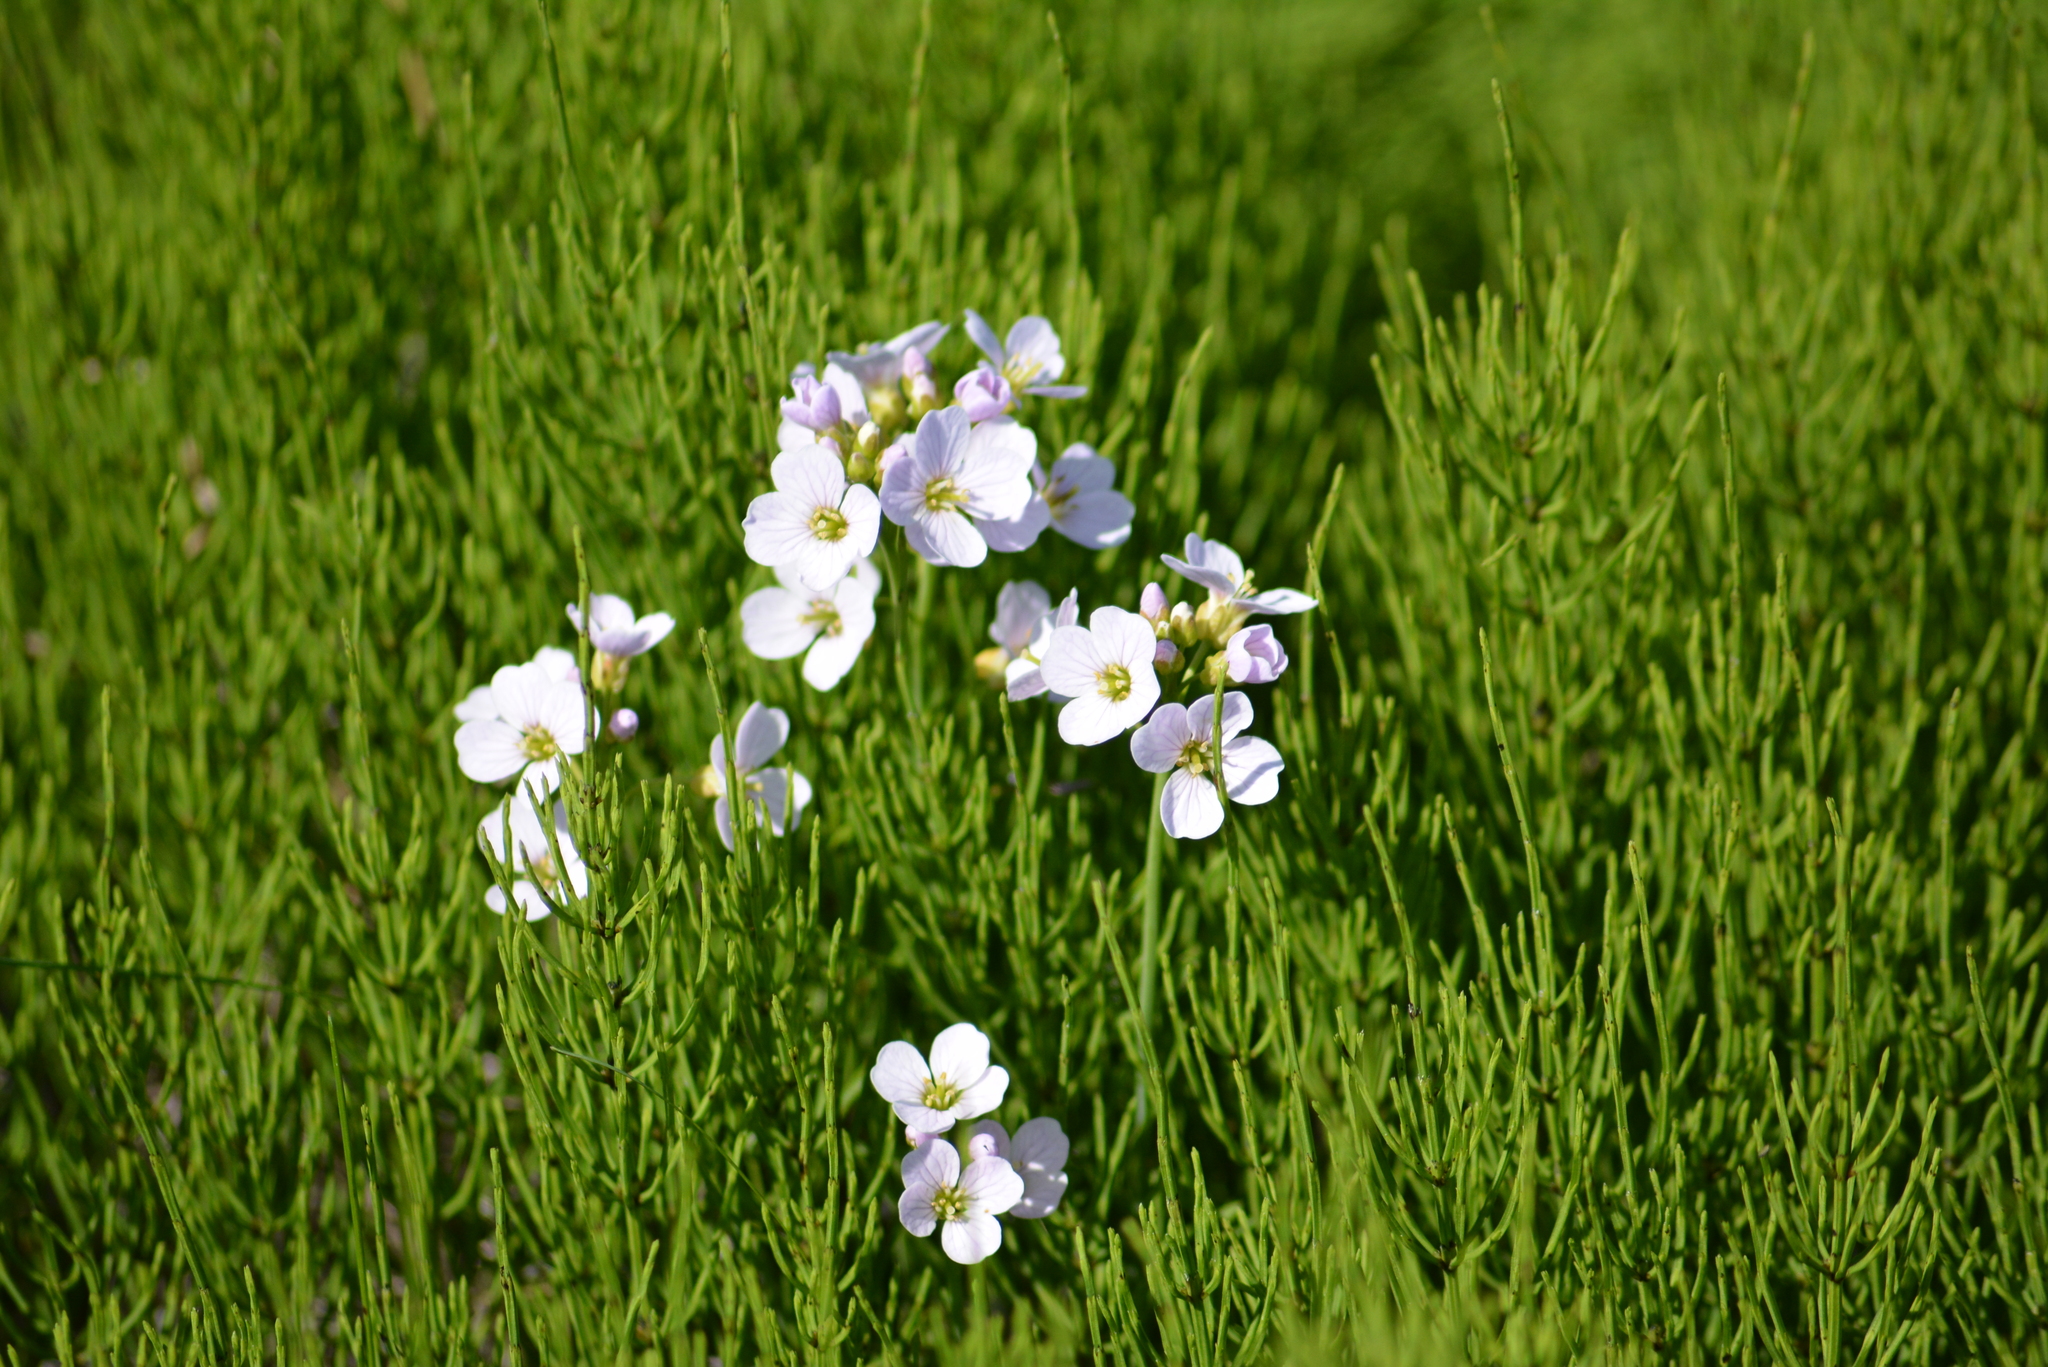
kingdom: Plantae
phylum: Tracheophyta
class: Magnoliopsida
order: Brassicales
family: Brassicaceae
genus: Cardamine
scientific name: Cardamine pratensis
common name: Cuckoo flower
